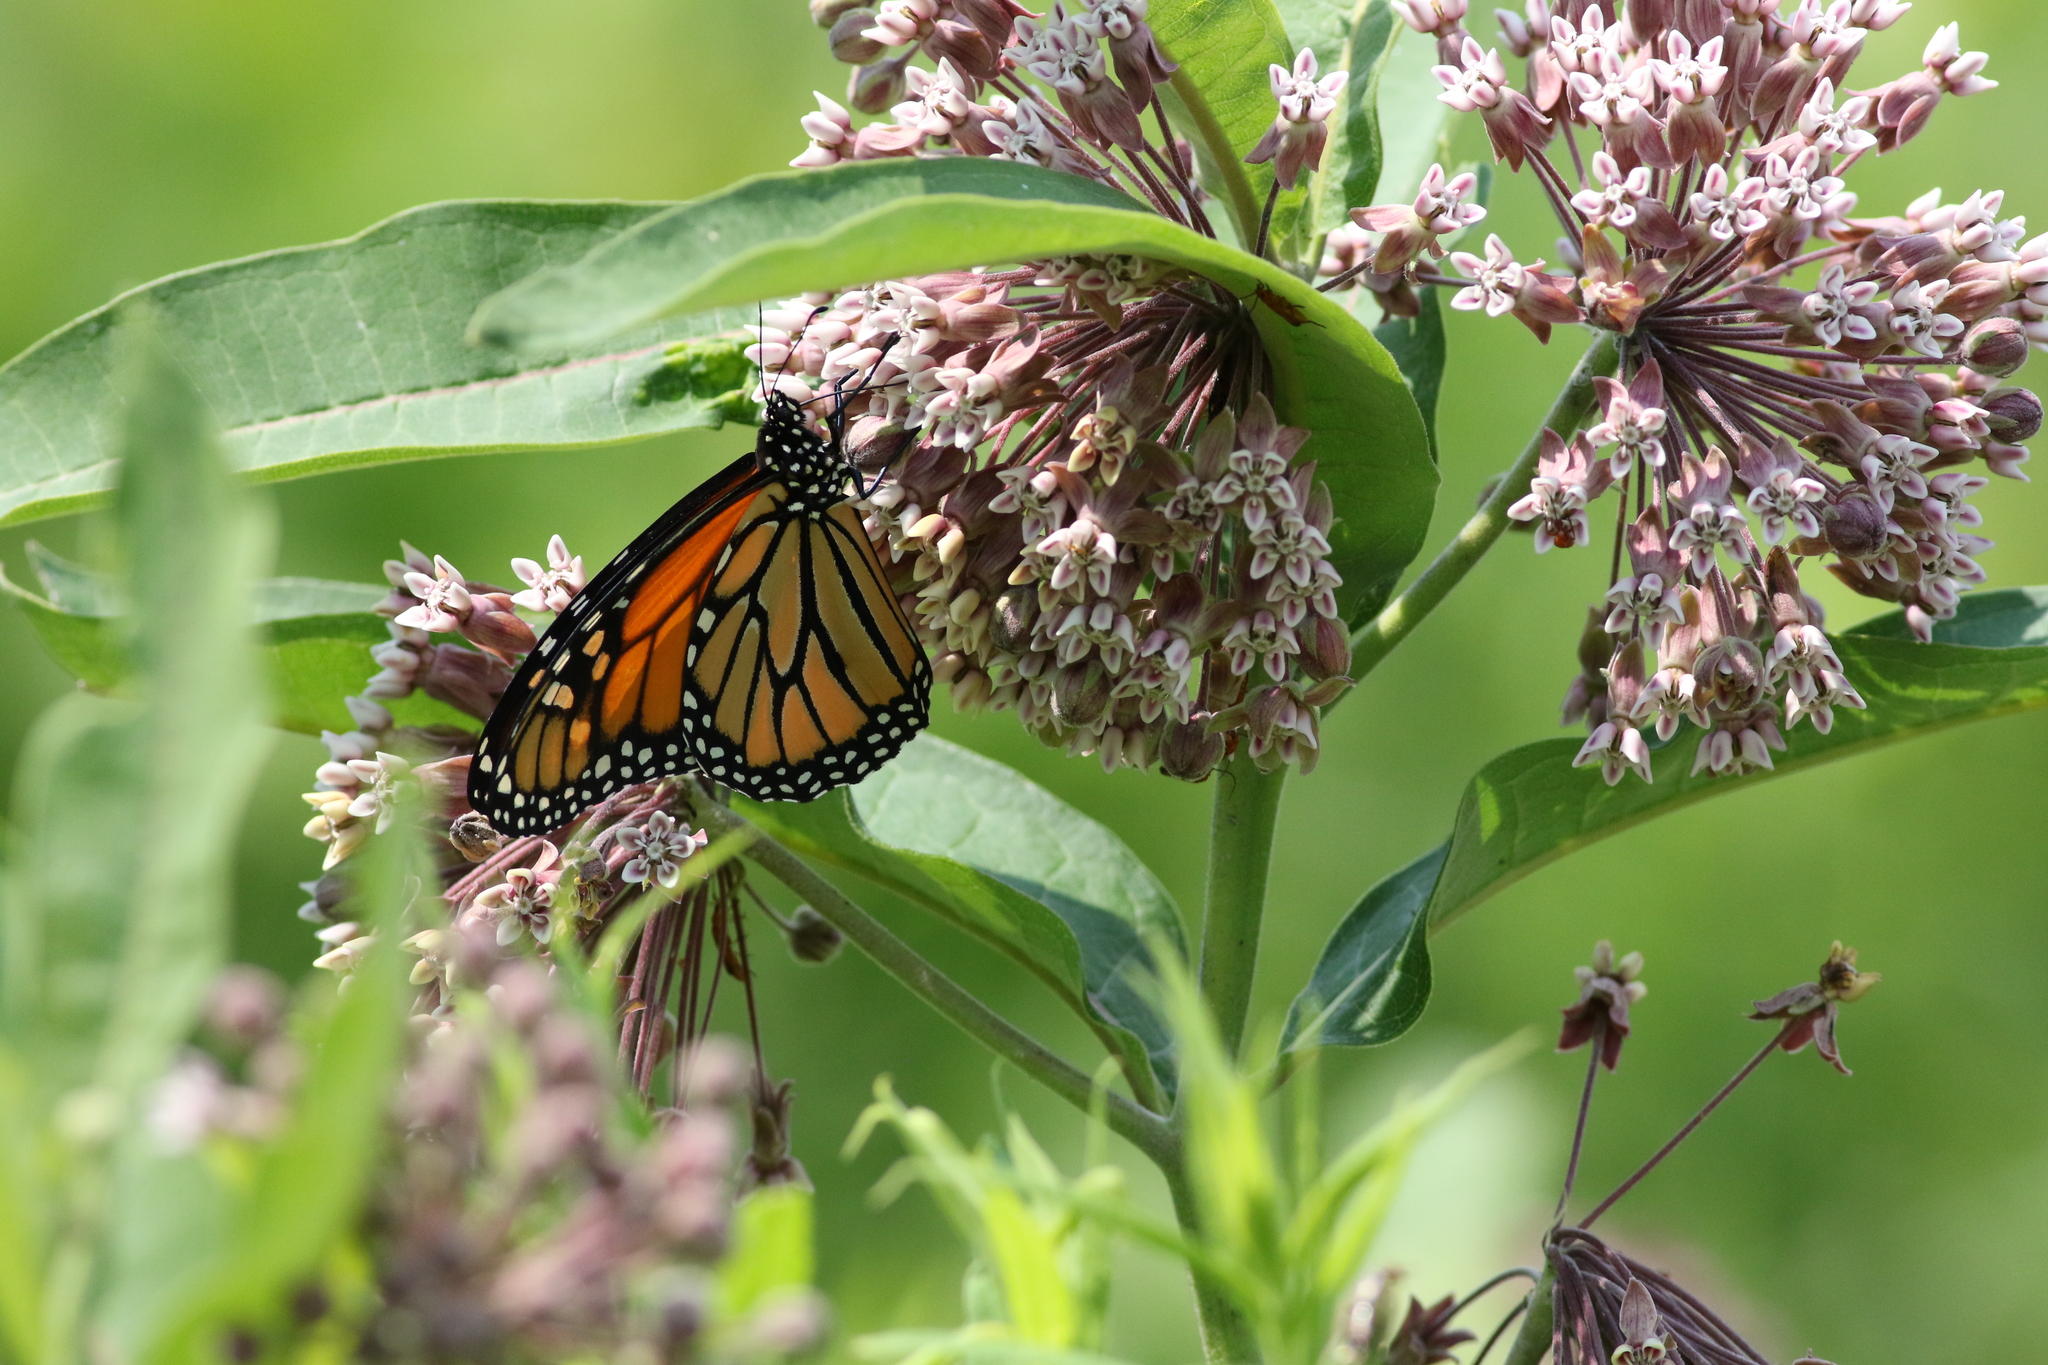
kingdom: Animalia
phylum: Arthropoda
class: Insecta
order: Lepidoptera
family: Nymphalidae
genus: Danaus
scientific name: Danaus plexippus
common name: Monarch
